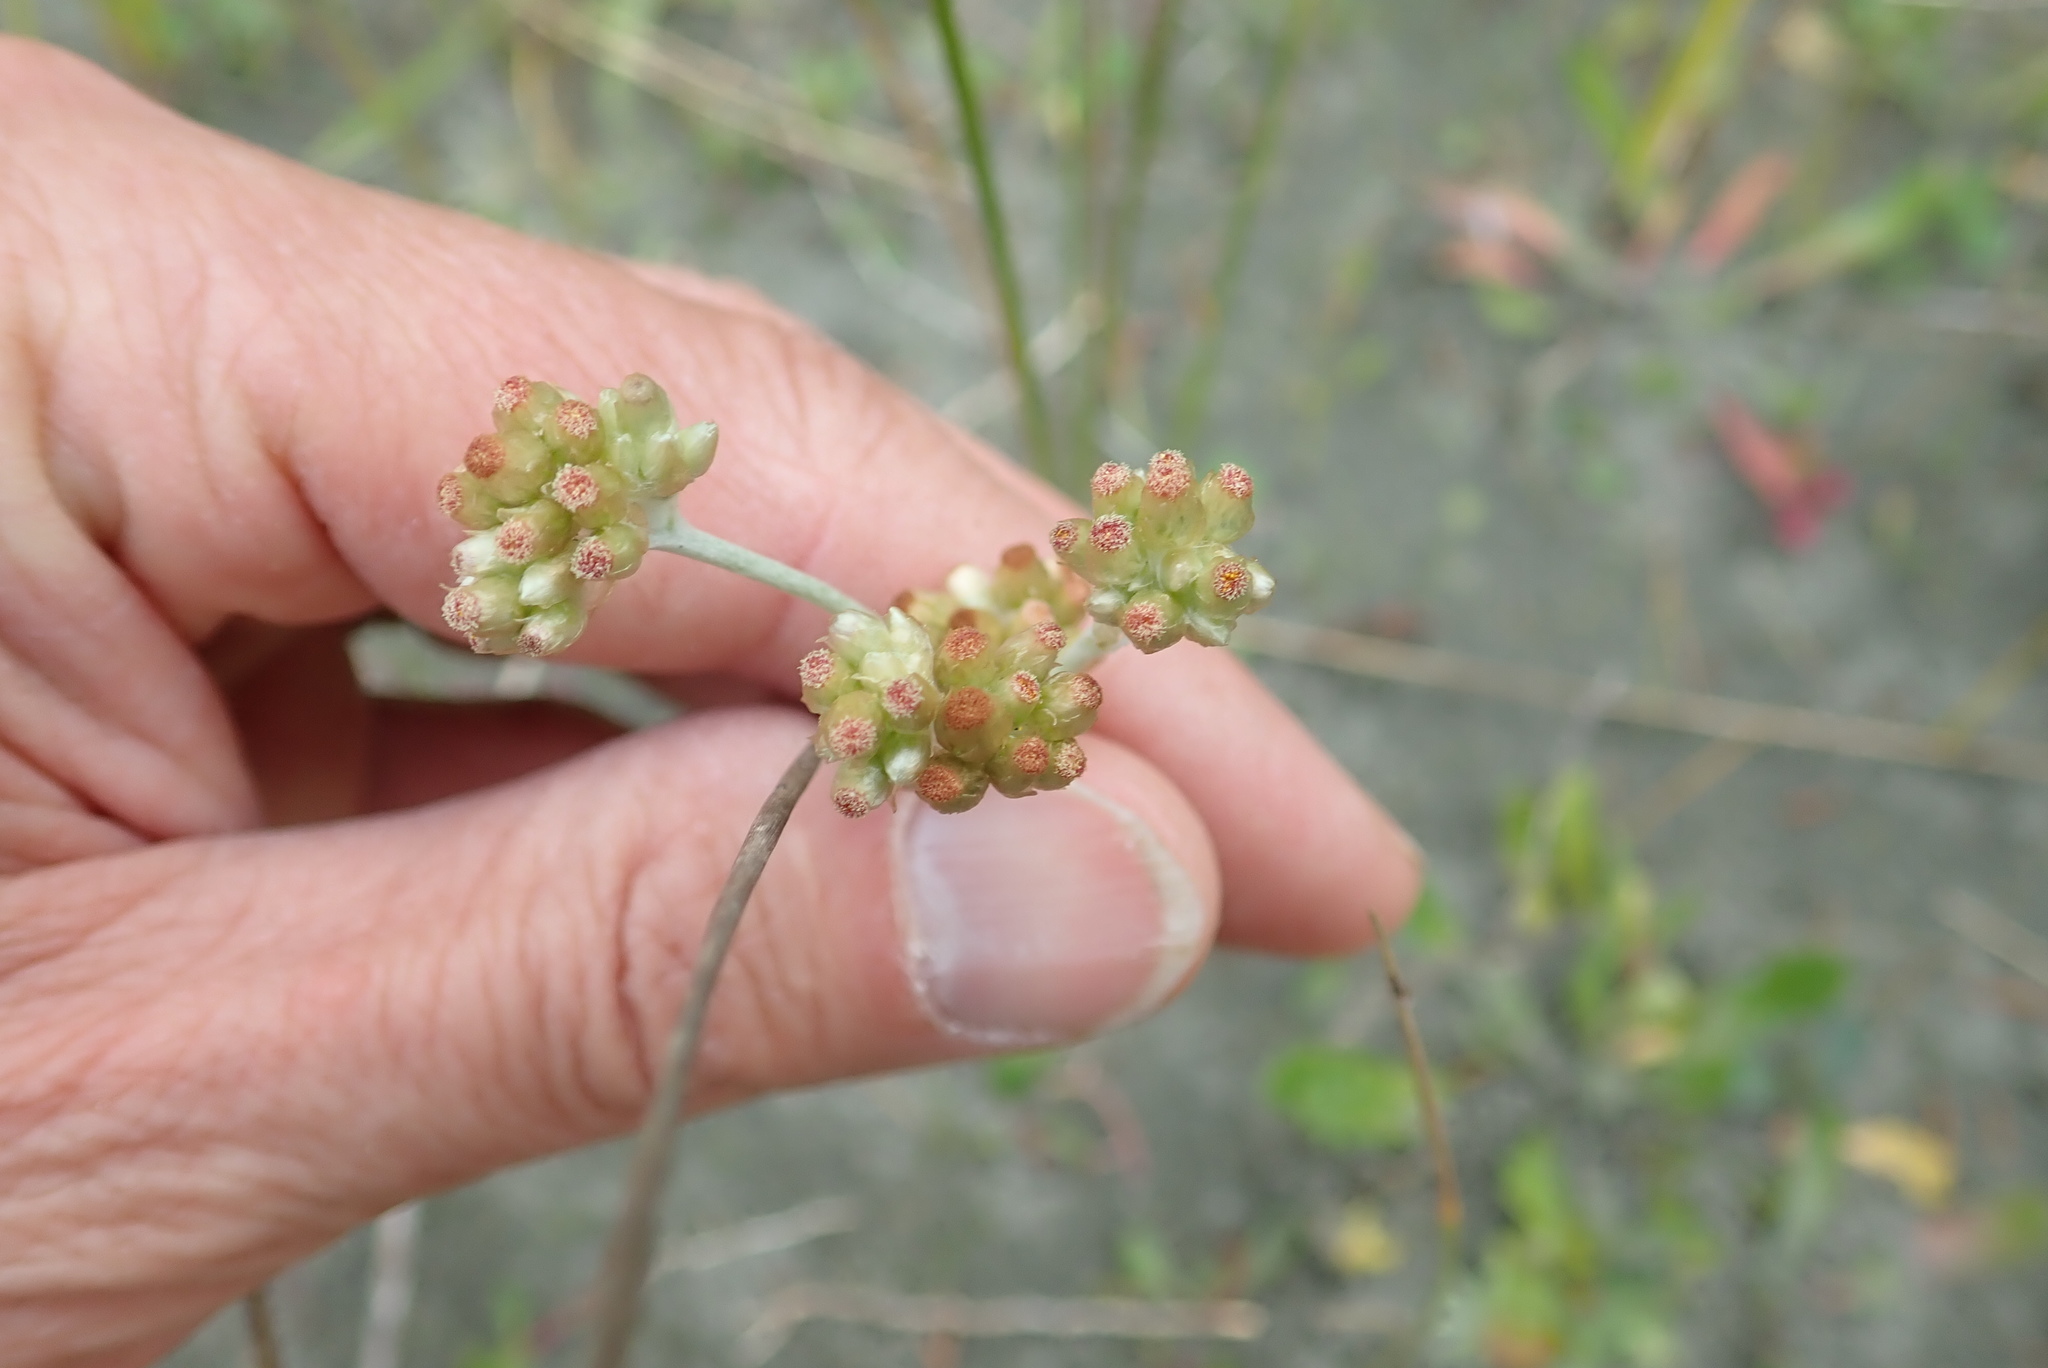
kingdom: Plantae
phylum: Tracheophyta
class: Magnoliopsida
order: Asterales
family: Asteraceae
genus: Helichrysum
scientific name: Helichrysum luteoalbum
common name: Daisy
